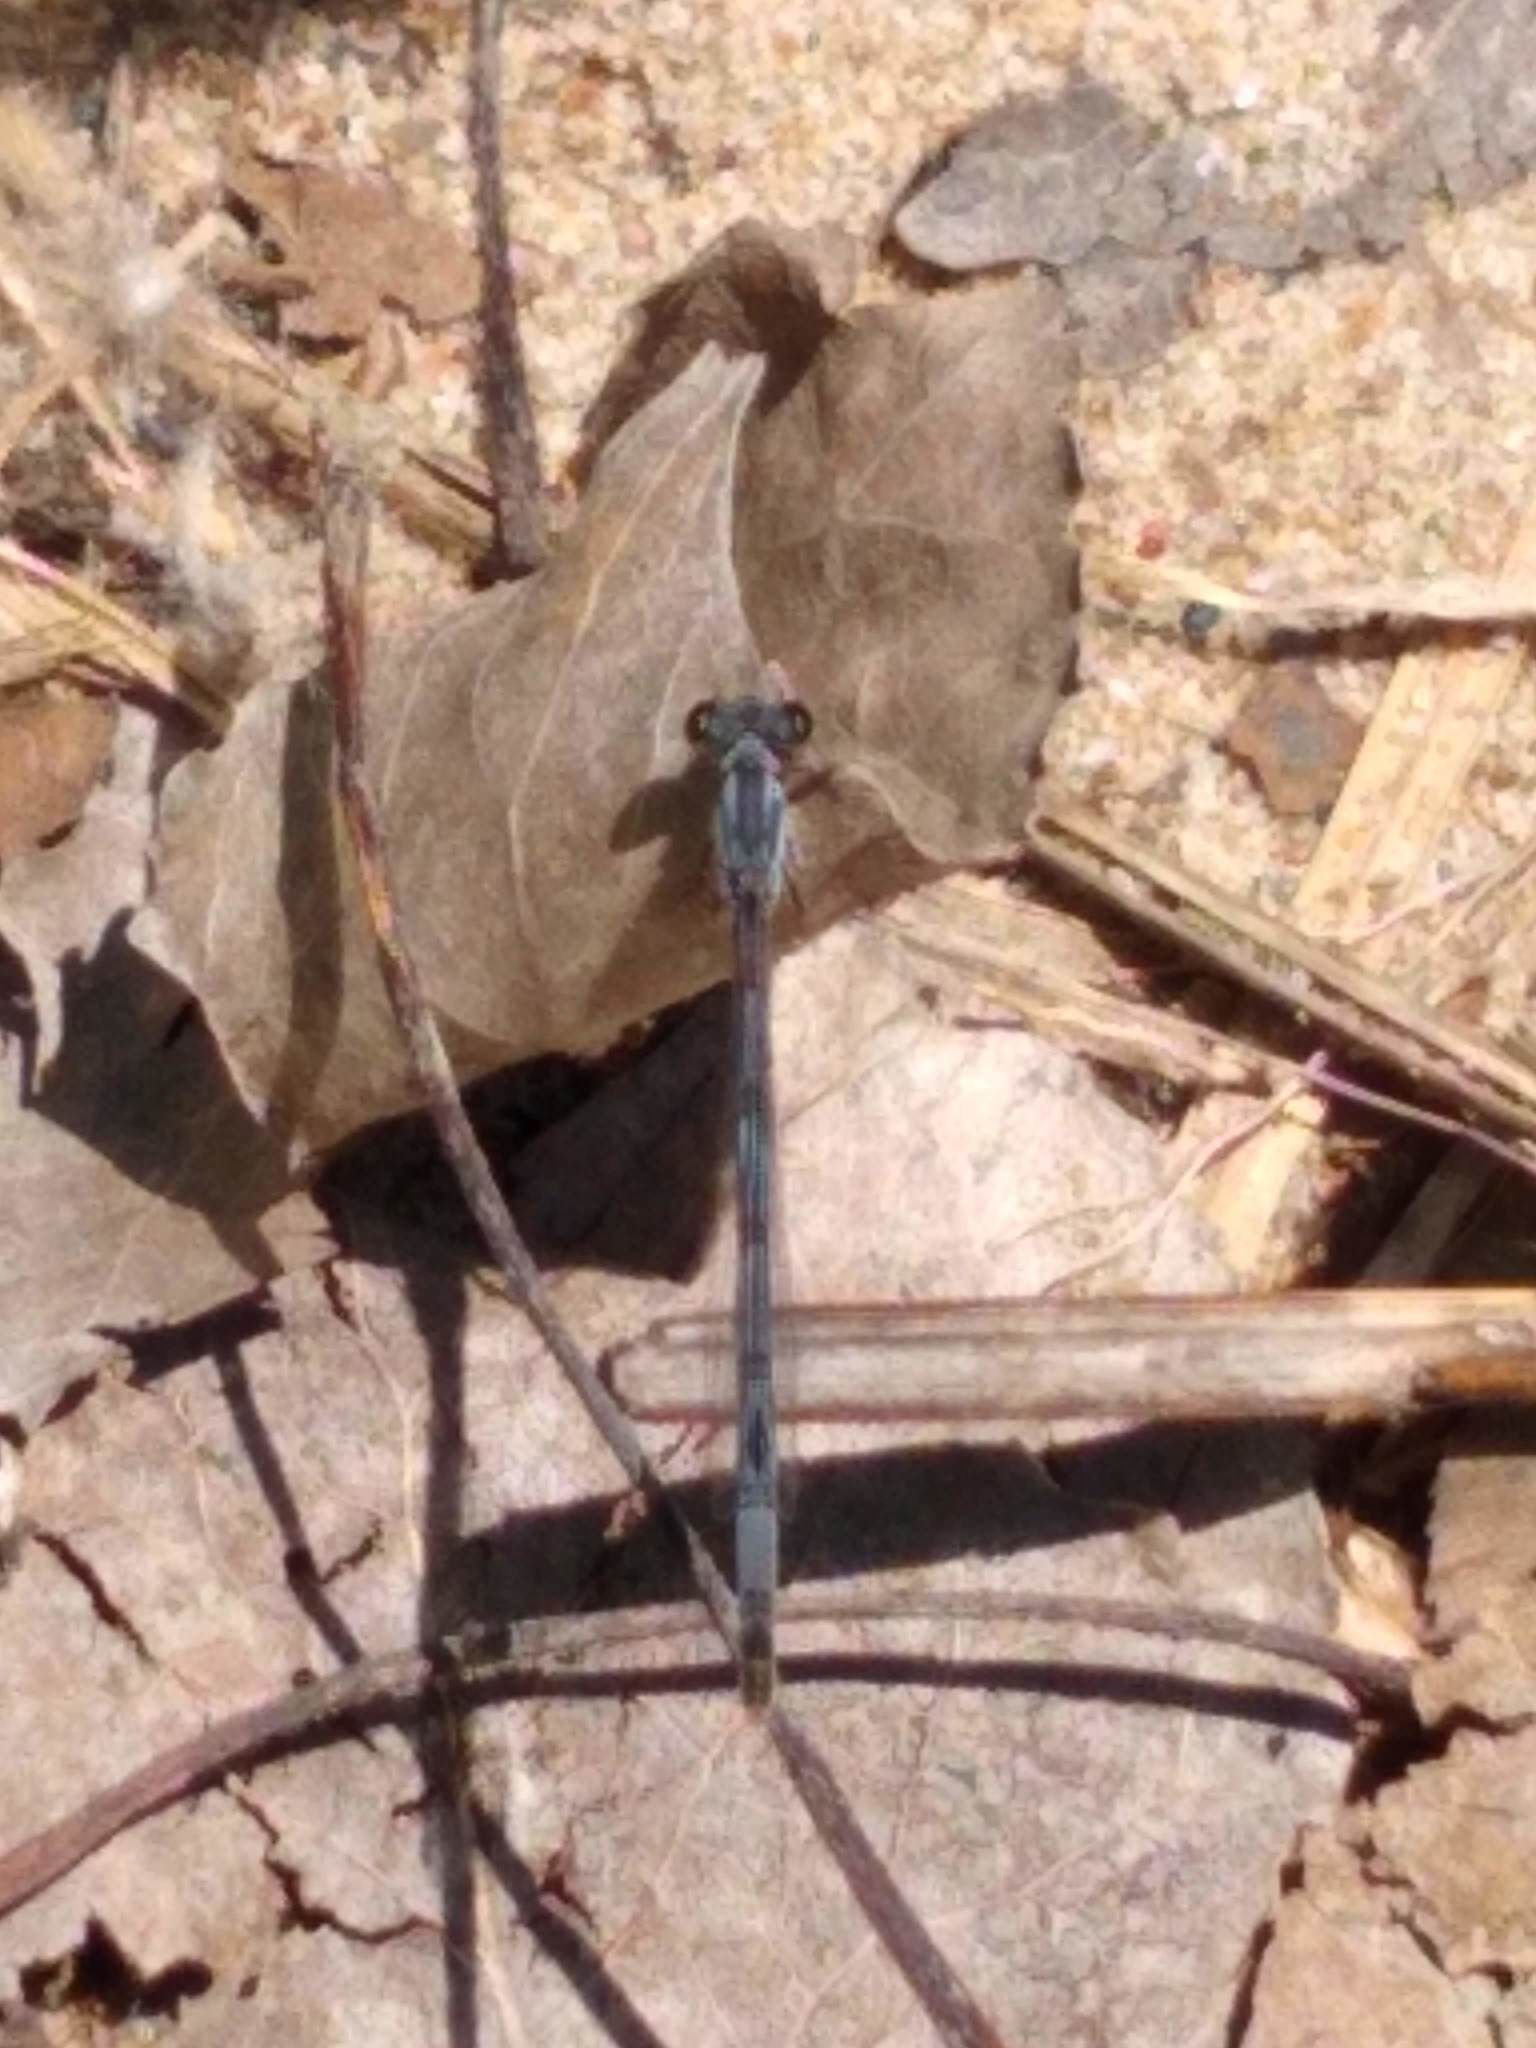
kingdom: Animalia
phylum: Arthropoda
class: Insecta
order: Odonata
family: Coenagrionidae
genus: Ischnura
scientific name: Ischnura posita
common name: Fragile forktail
